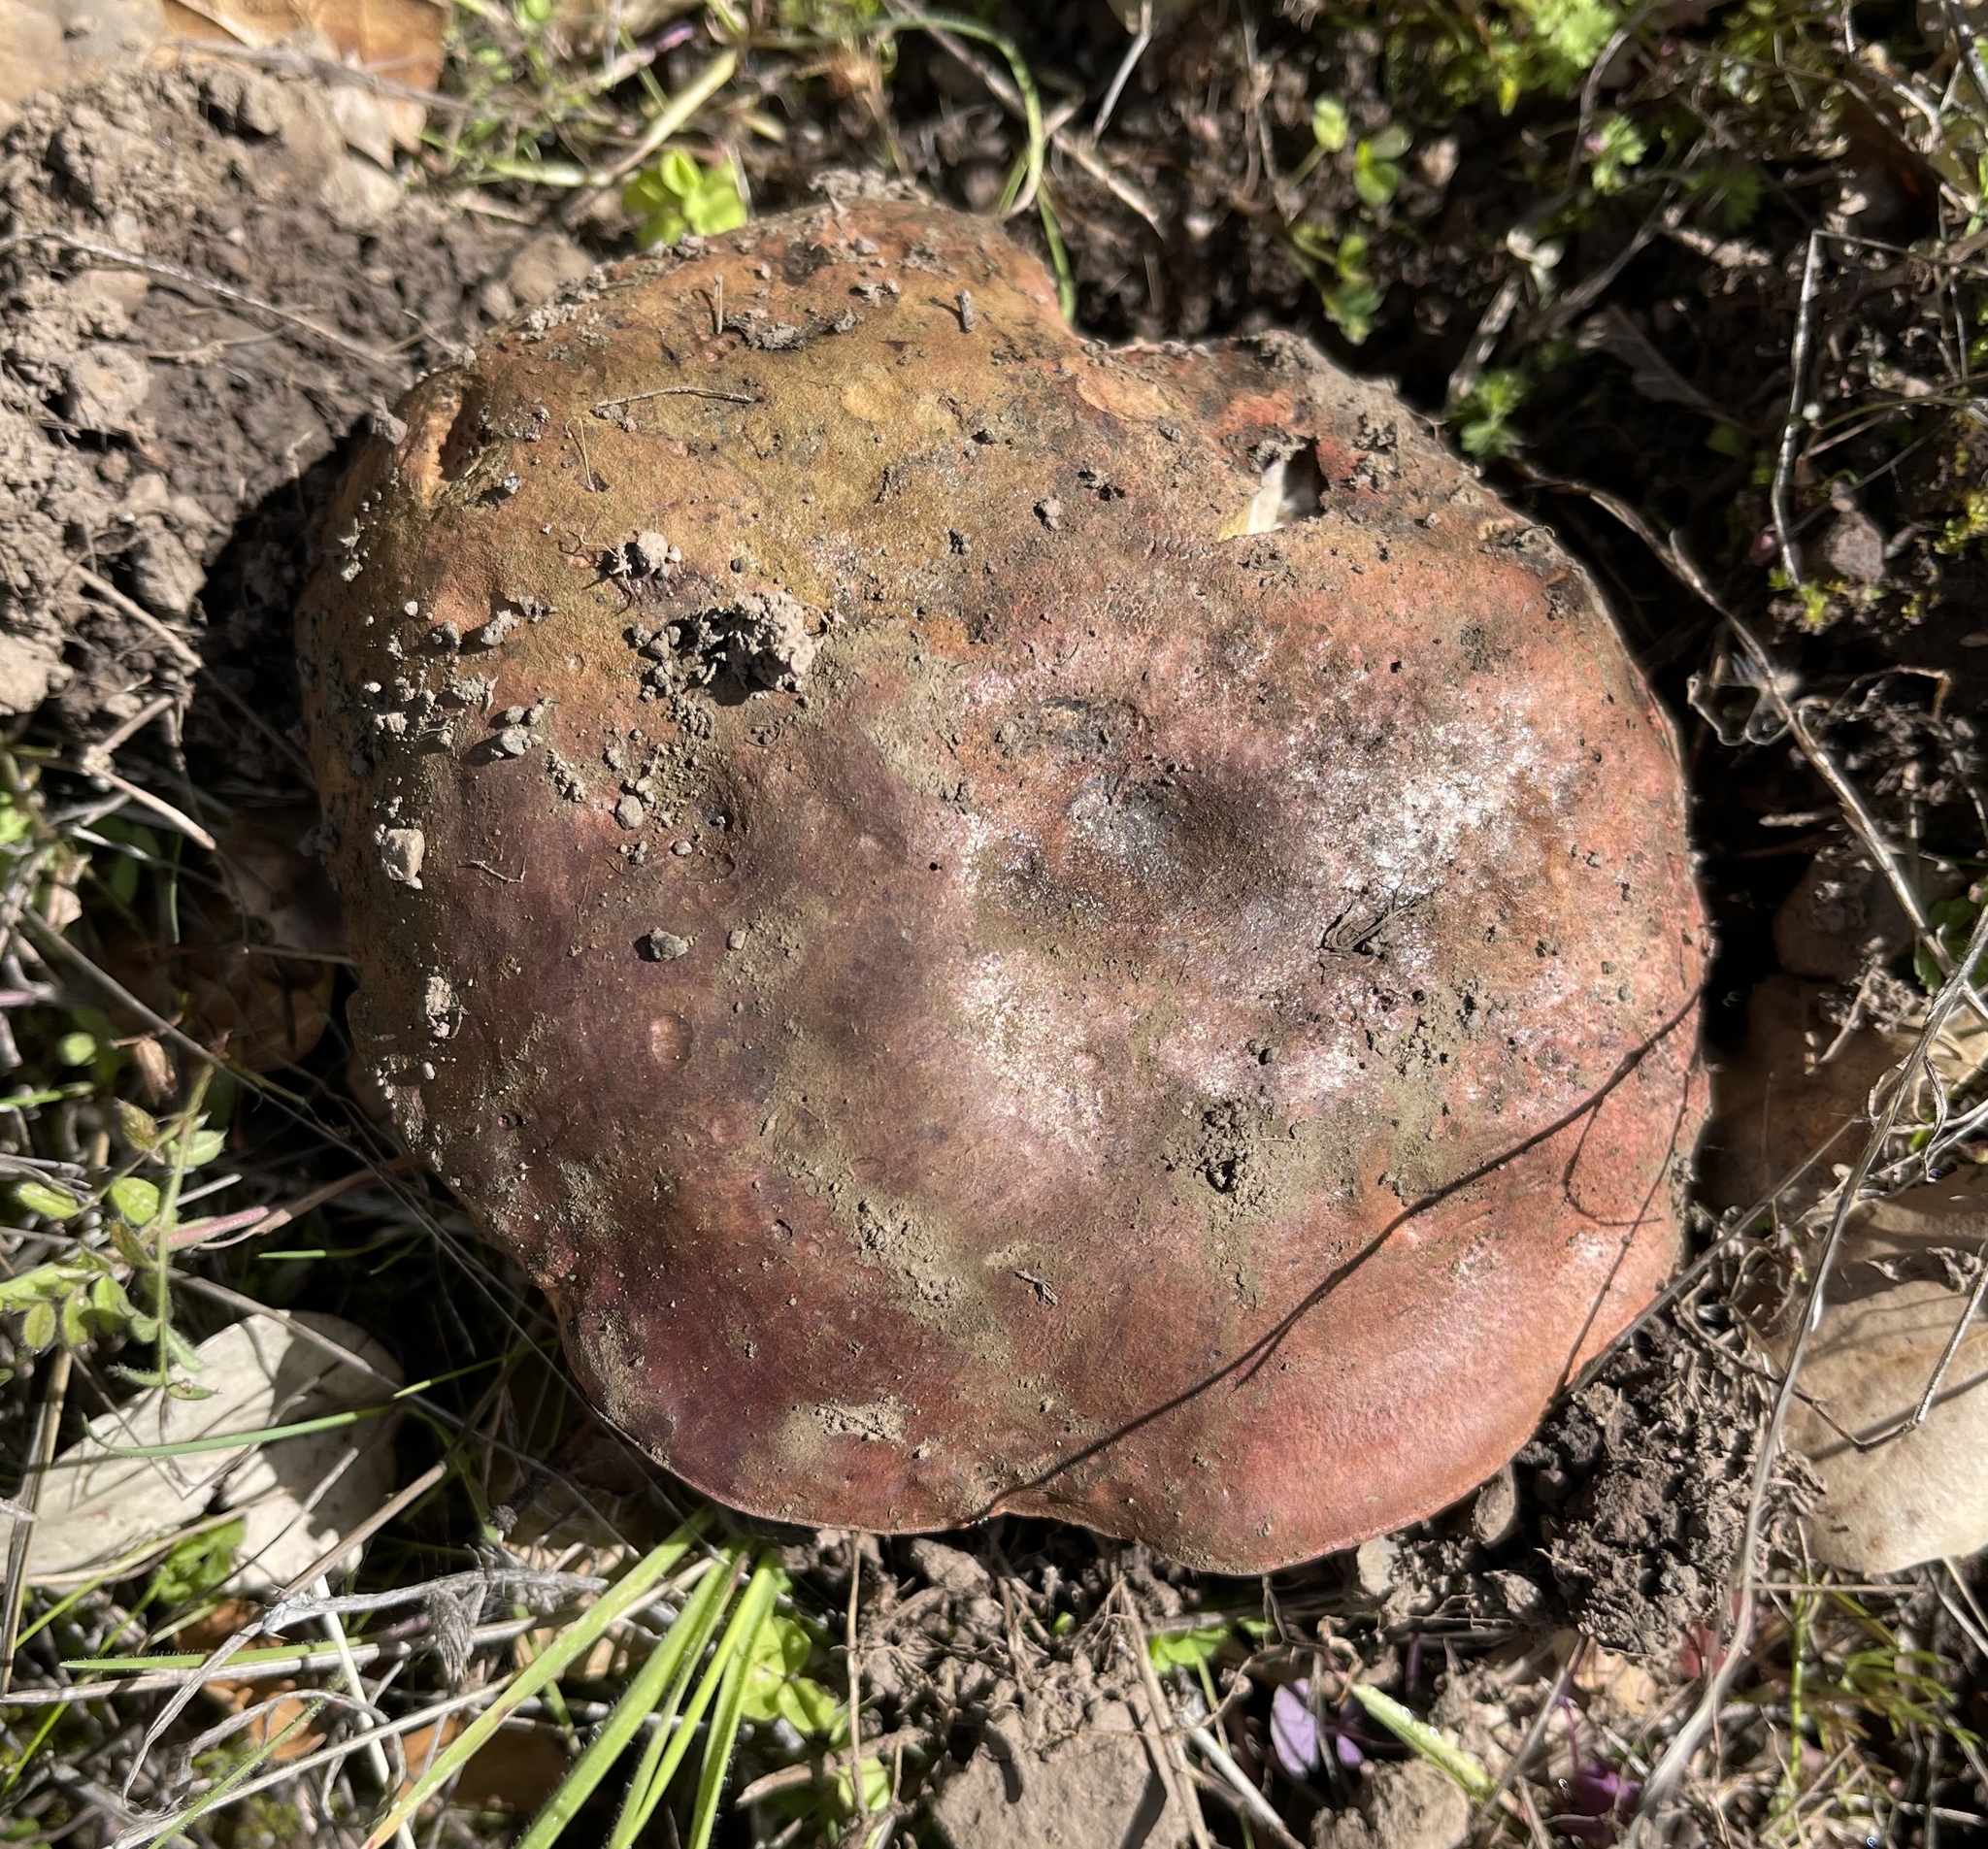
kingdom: Fungi
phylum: Basidiomycota
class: Agaricomycetes
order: Boletales
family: Boletaceae
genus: Suillellus
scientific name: Suillellus amygdalinus
